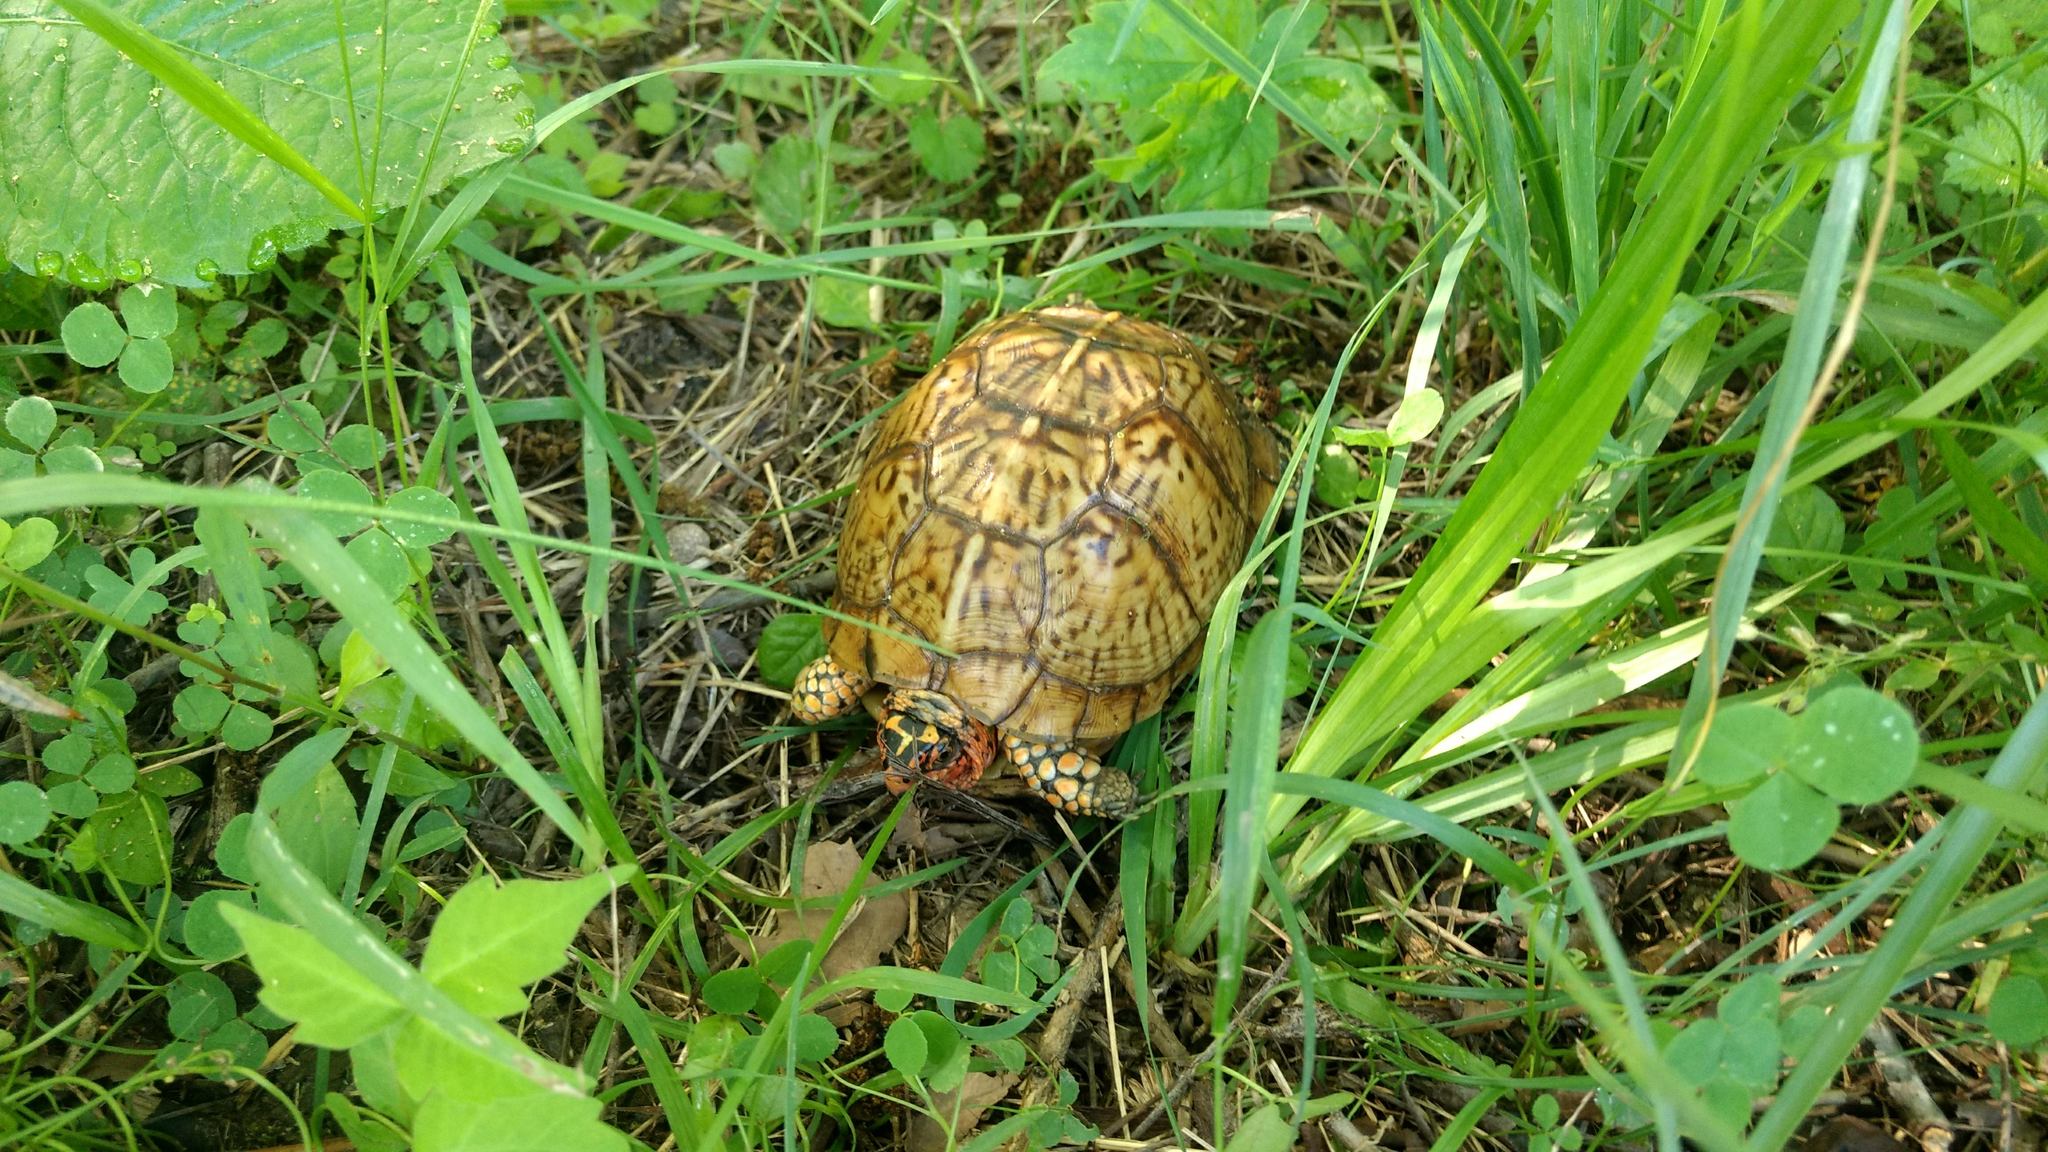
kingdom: Animalia
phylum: Chordata
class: Testudines
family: Emydidae
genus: Terrapene
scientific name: Terrapene carolina
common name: Common box turtle
